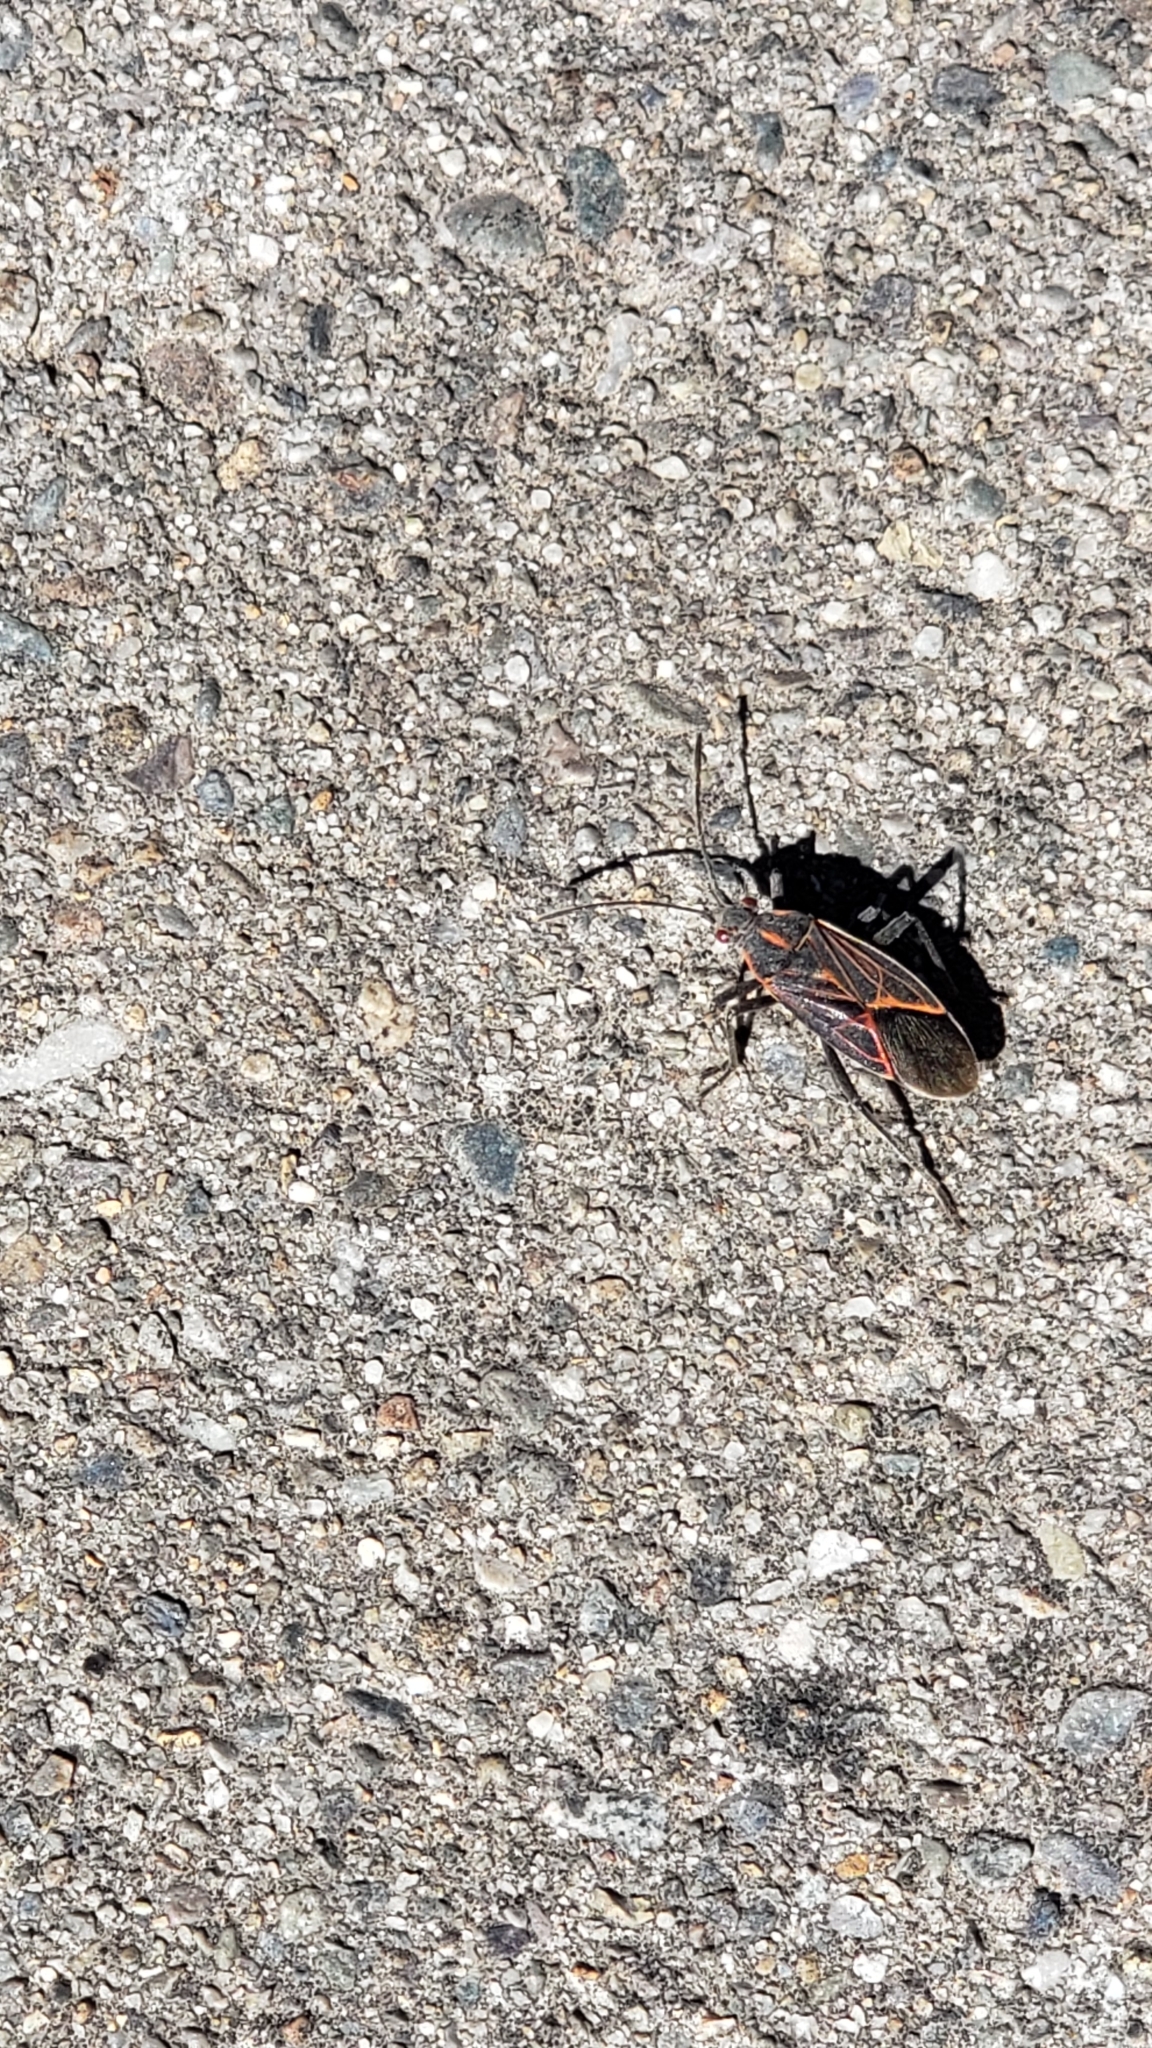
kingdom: Animalia
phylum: Arthropoda
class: Insecta
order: Hemiptera
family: Rhopalidae
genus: Boisea
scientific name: Boisea rubrolineata
